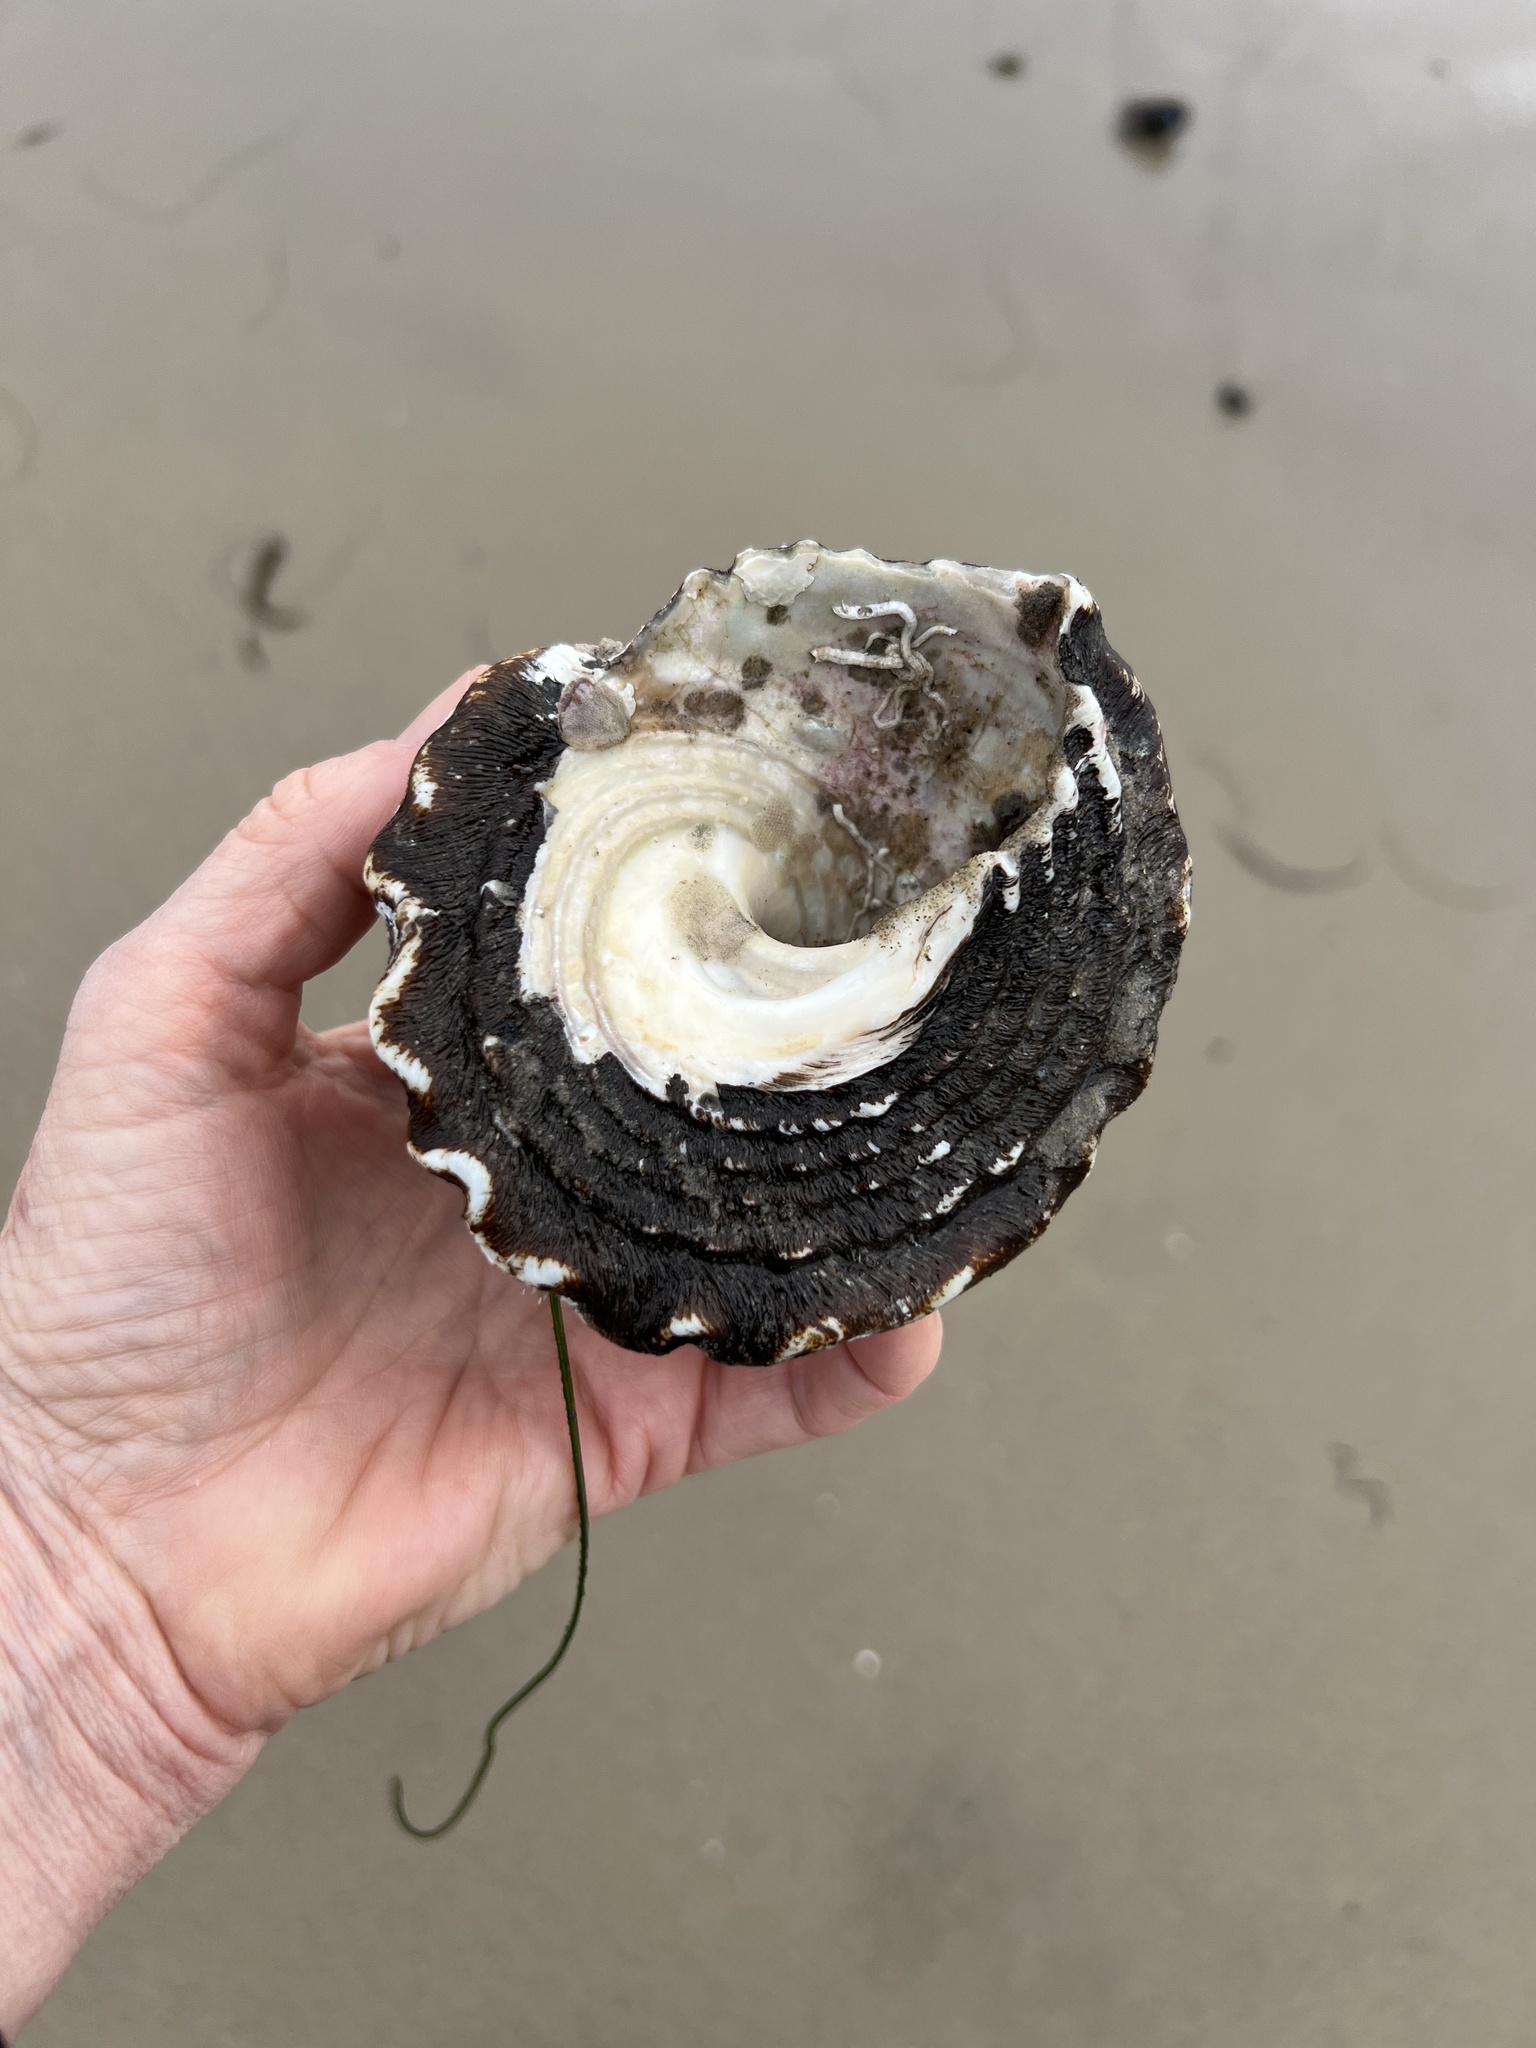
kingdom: Animalia
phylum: Mollusca
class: Gastropoda
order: Trochida
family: Turbinidae
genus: Megastraea
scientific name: Megastraea undosa
